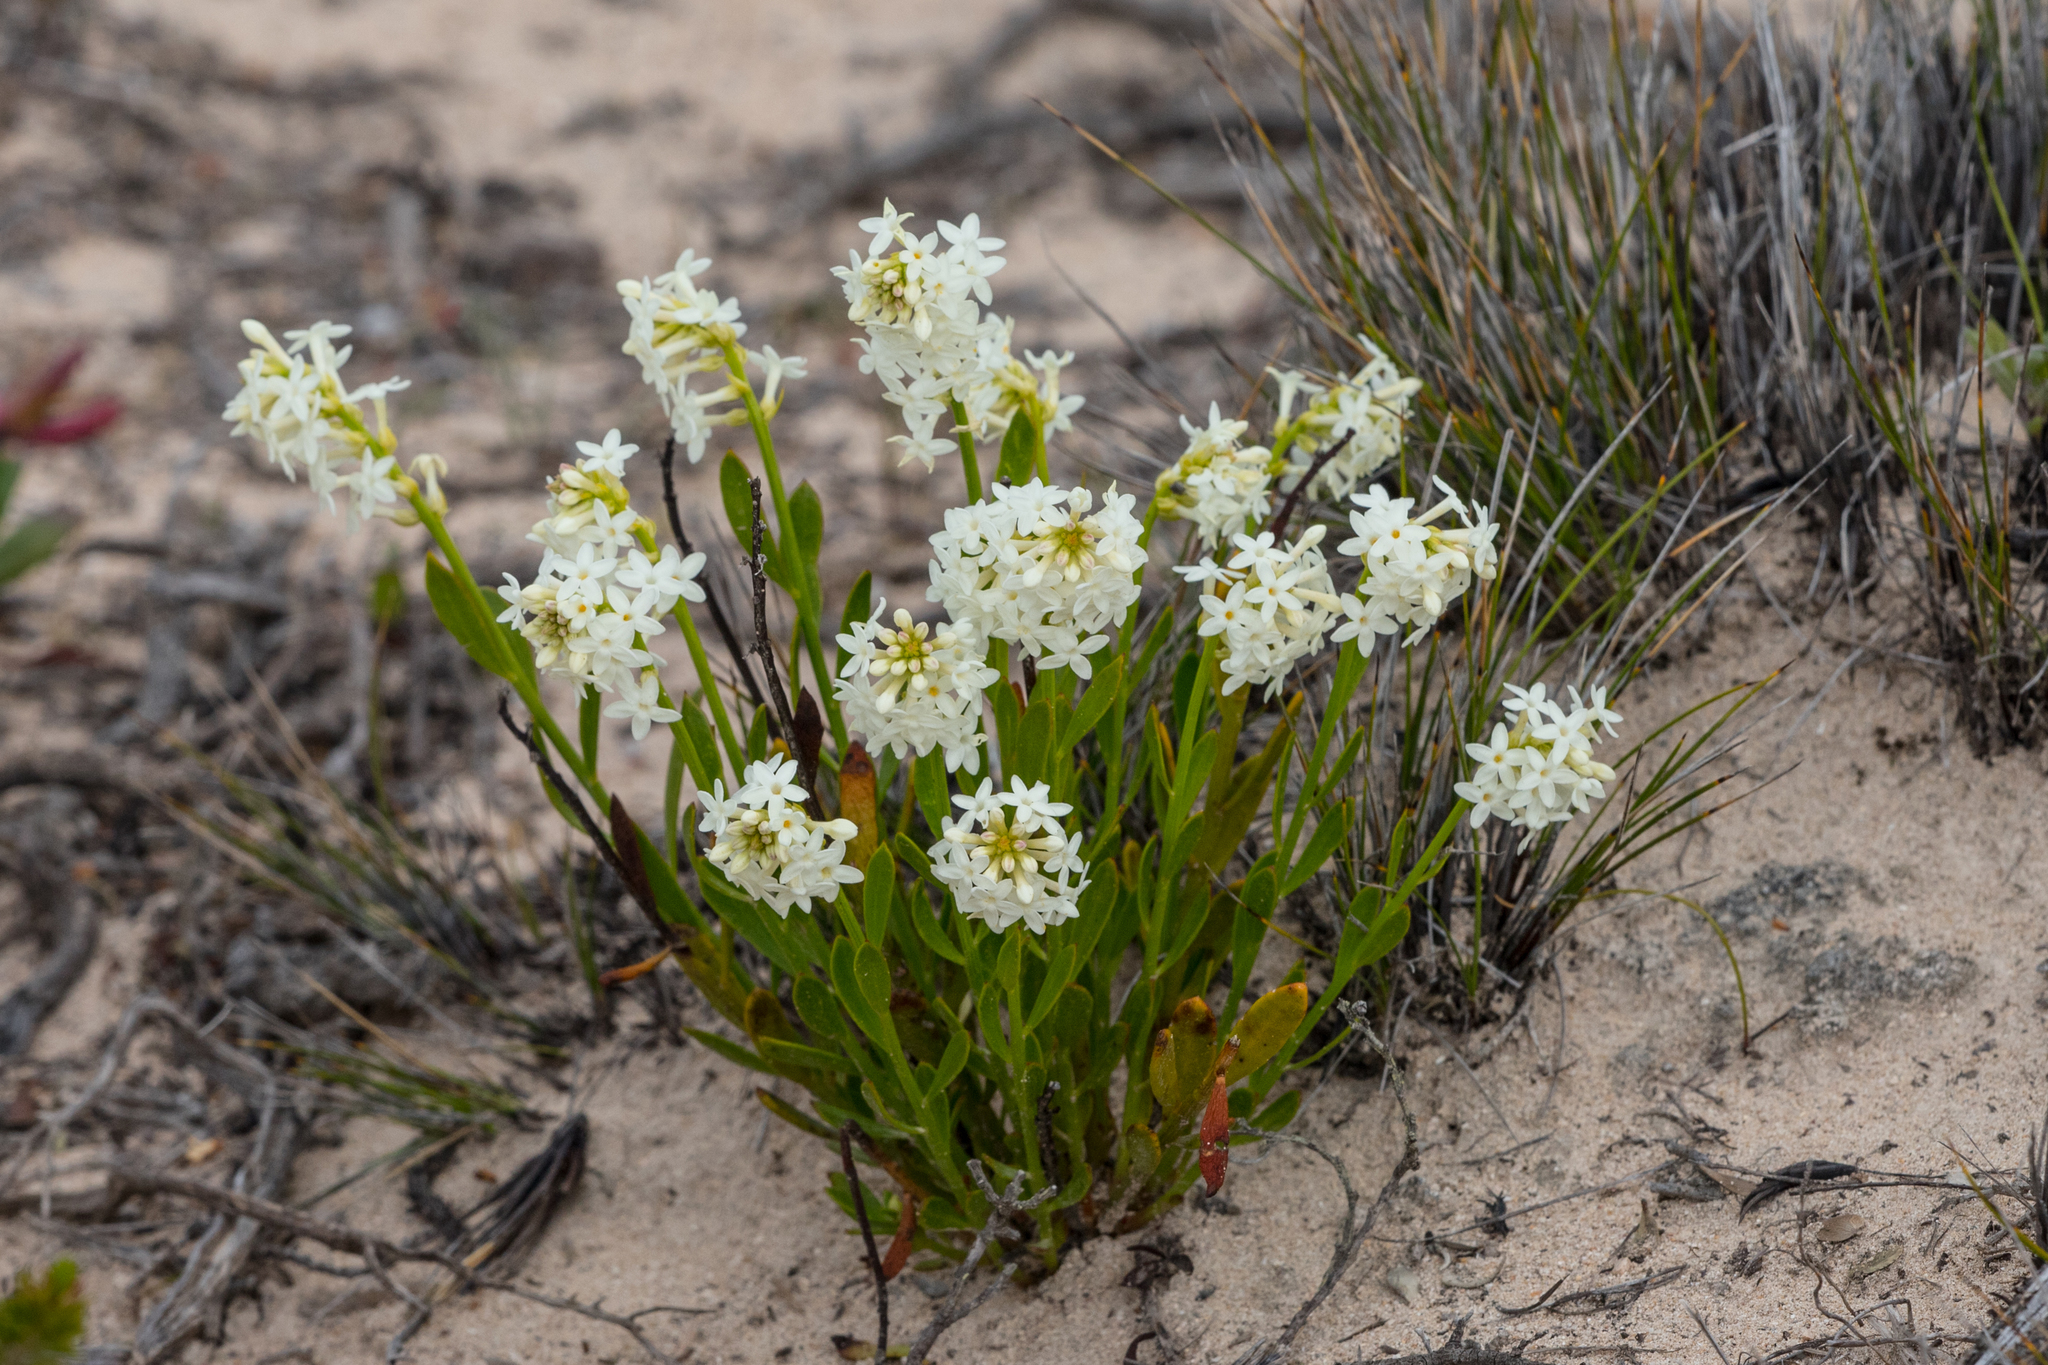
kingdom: Plantae
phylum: Tracheophyta
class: Magnoliopsida
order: Celastrales
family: Celastraceae
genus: Stackhousia
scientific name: Stackhousia spathulata
